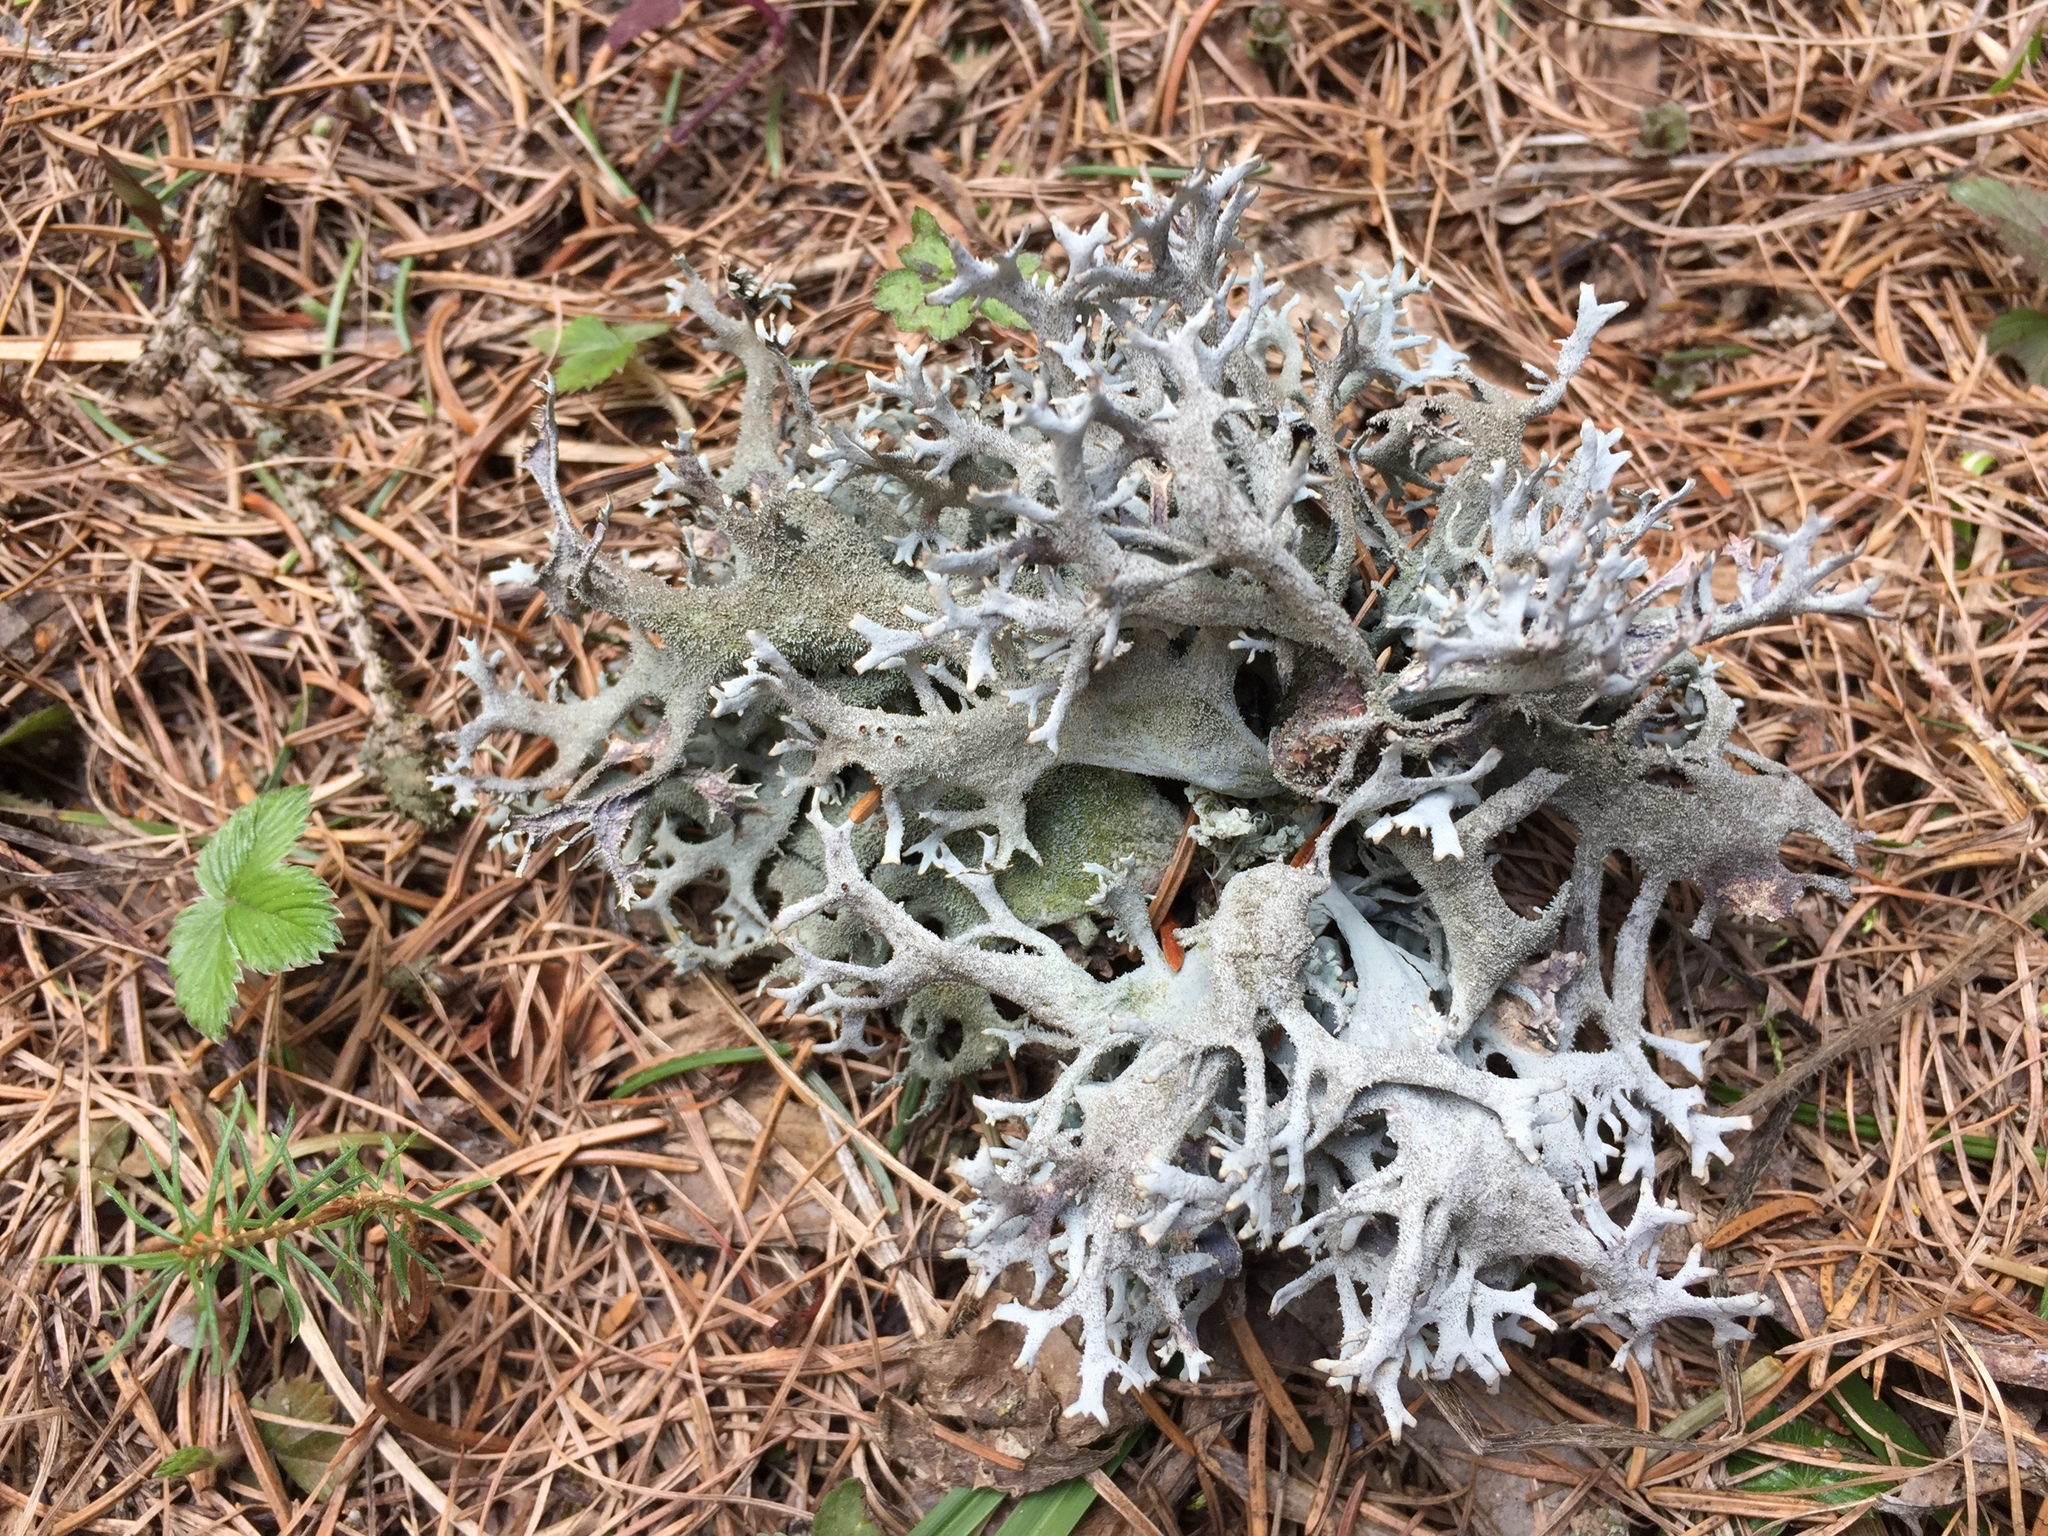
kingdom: Fungi
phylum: Ascomycota
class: Lecanoromycetes
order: Lecanorales
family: Parmeliaceae
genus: Pseudevernia
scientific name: Pseudevernia furfuracea
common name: Tree moss
